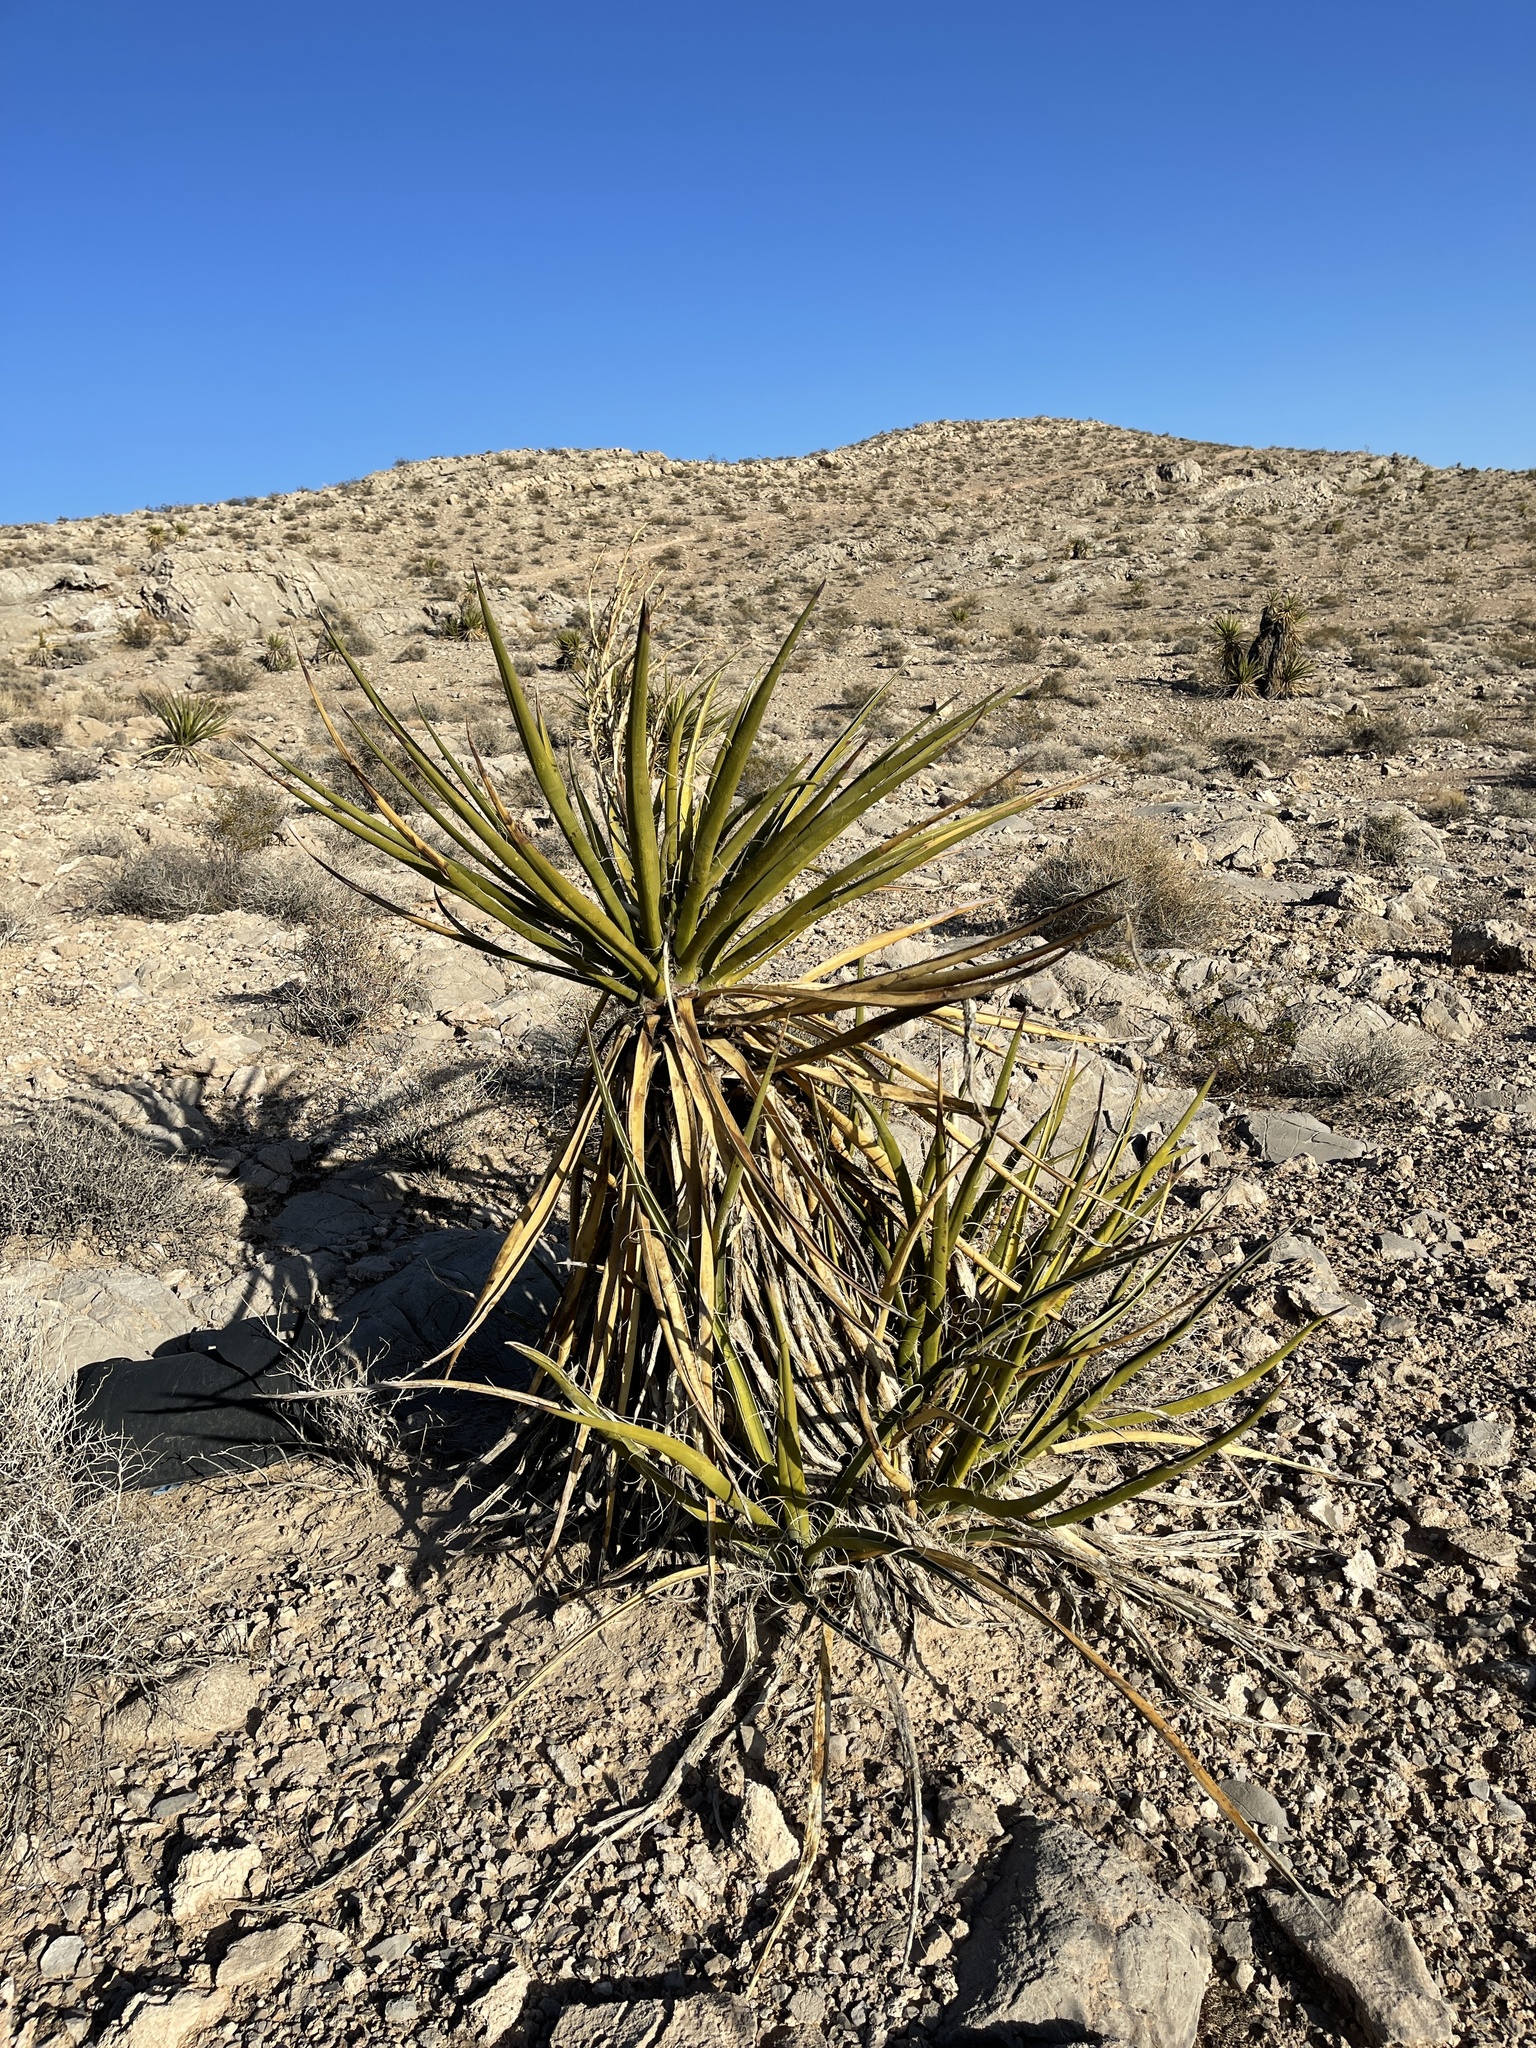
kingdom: Plantae
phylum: Tracheophyta
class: Liliopsida
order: Asparagales
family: Asparagaceae
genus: Yucca
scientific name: Yucca schidigera
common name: Mojave yucca
